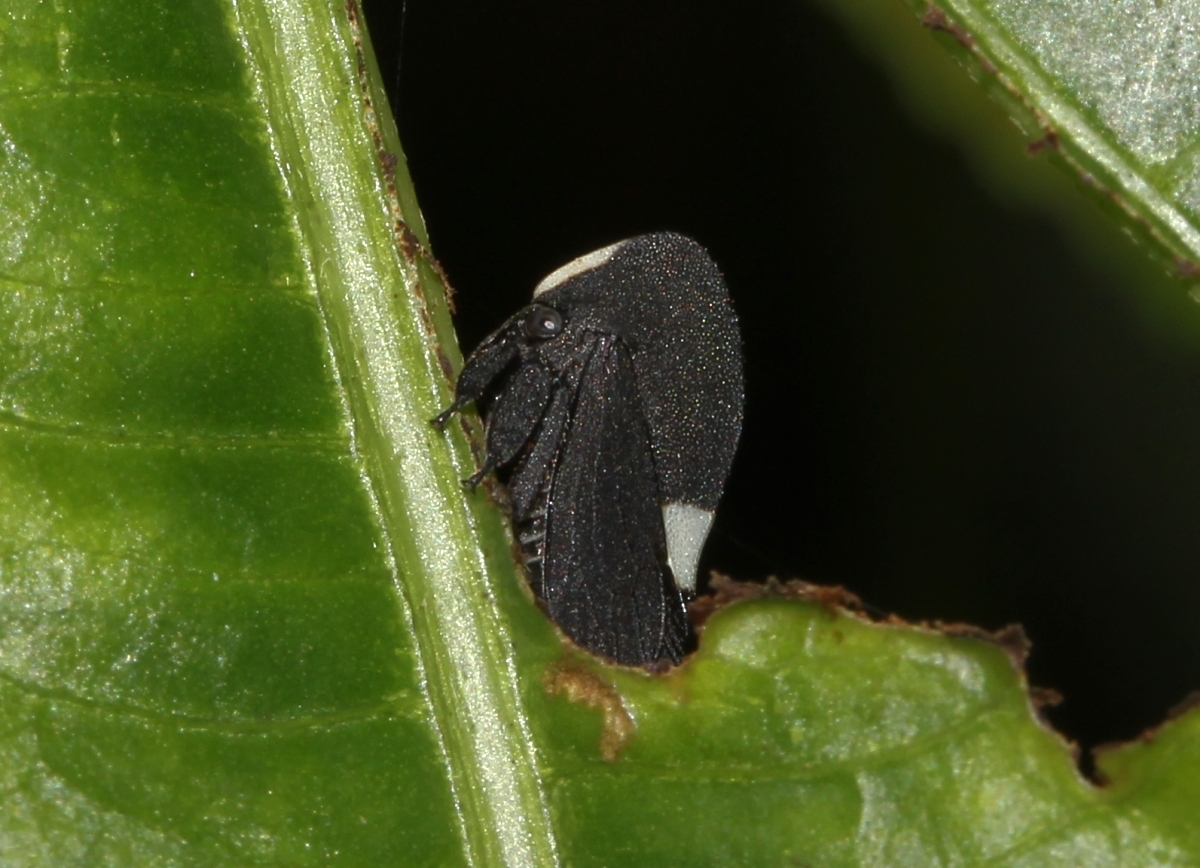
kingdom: Animalia
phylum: Arthropoda
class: Insecta
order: Hemiptera
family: Membracidae
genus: Membracis
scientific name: Membracis dorsata
